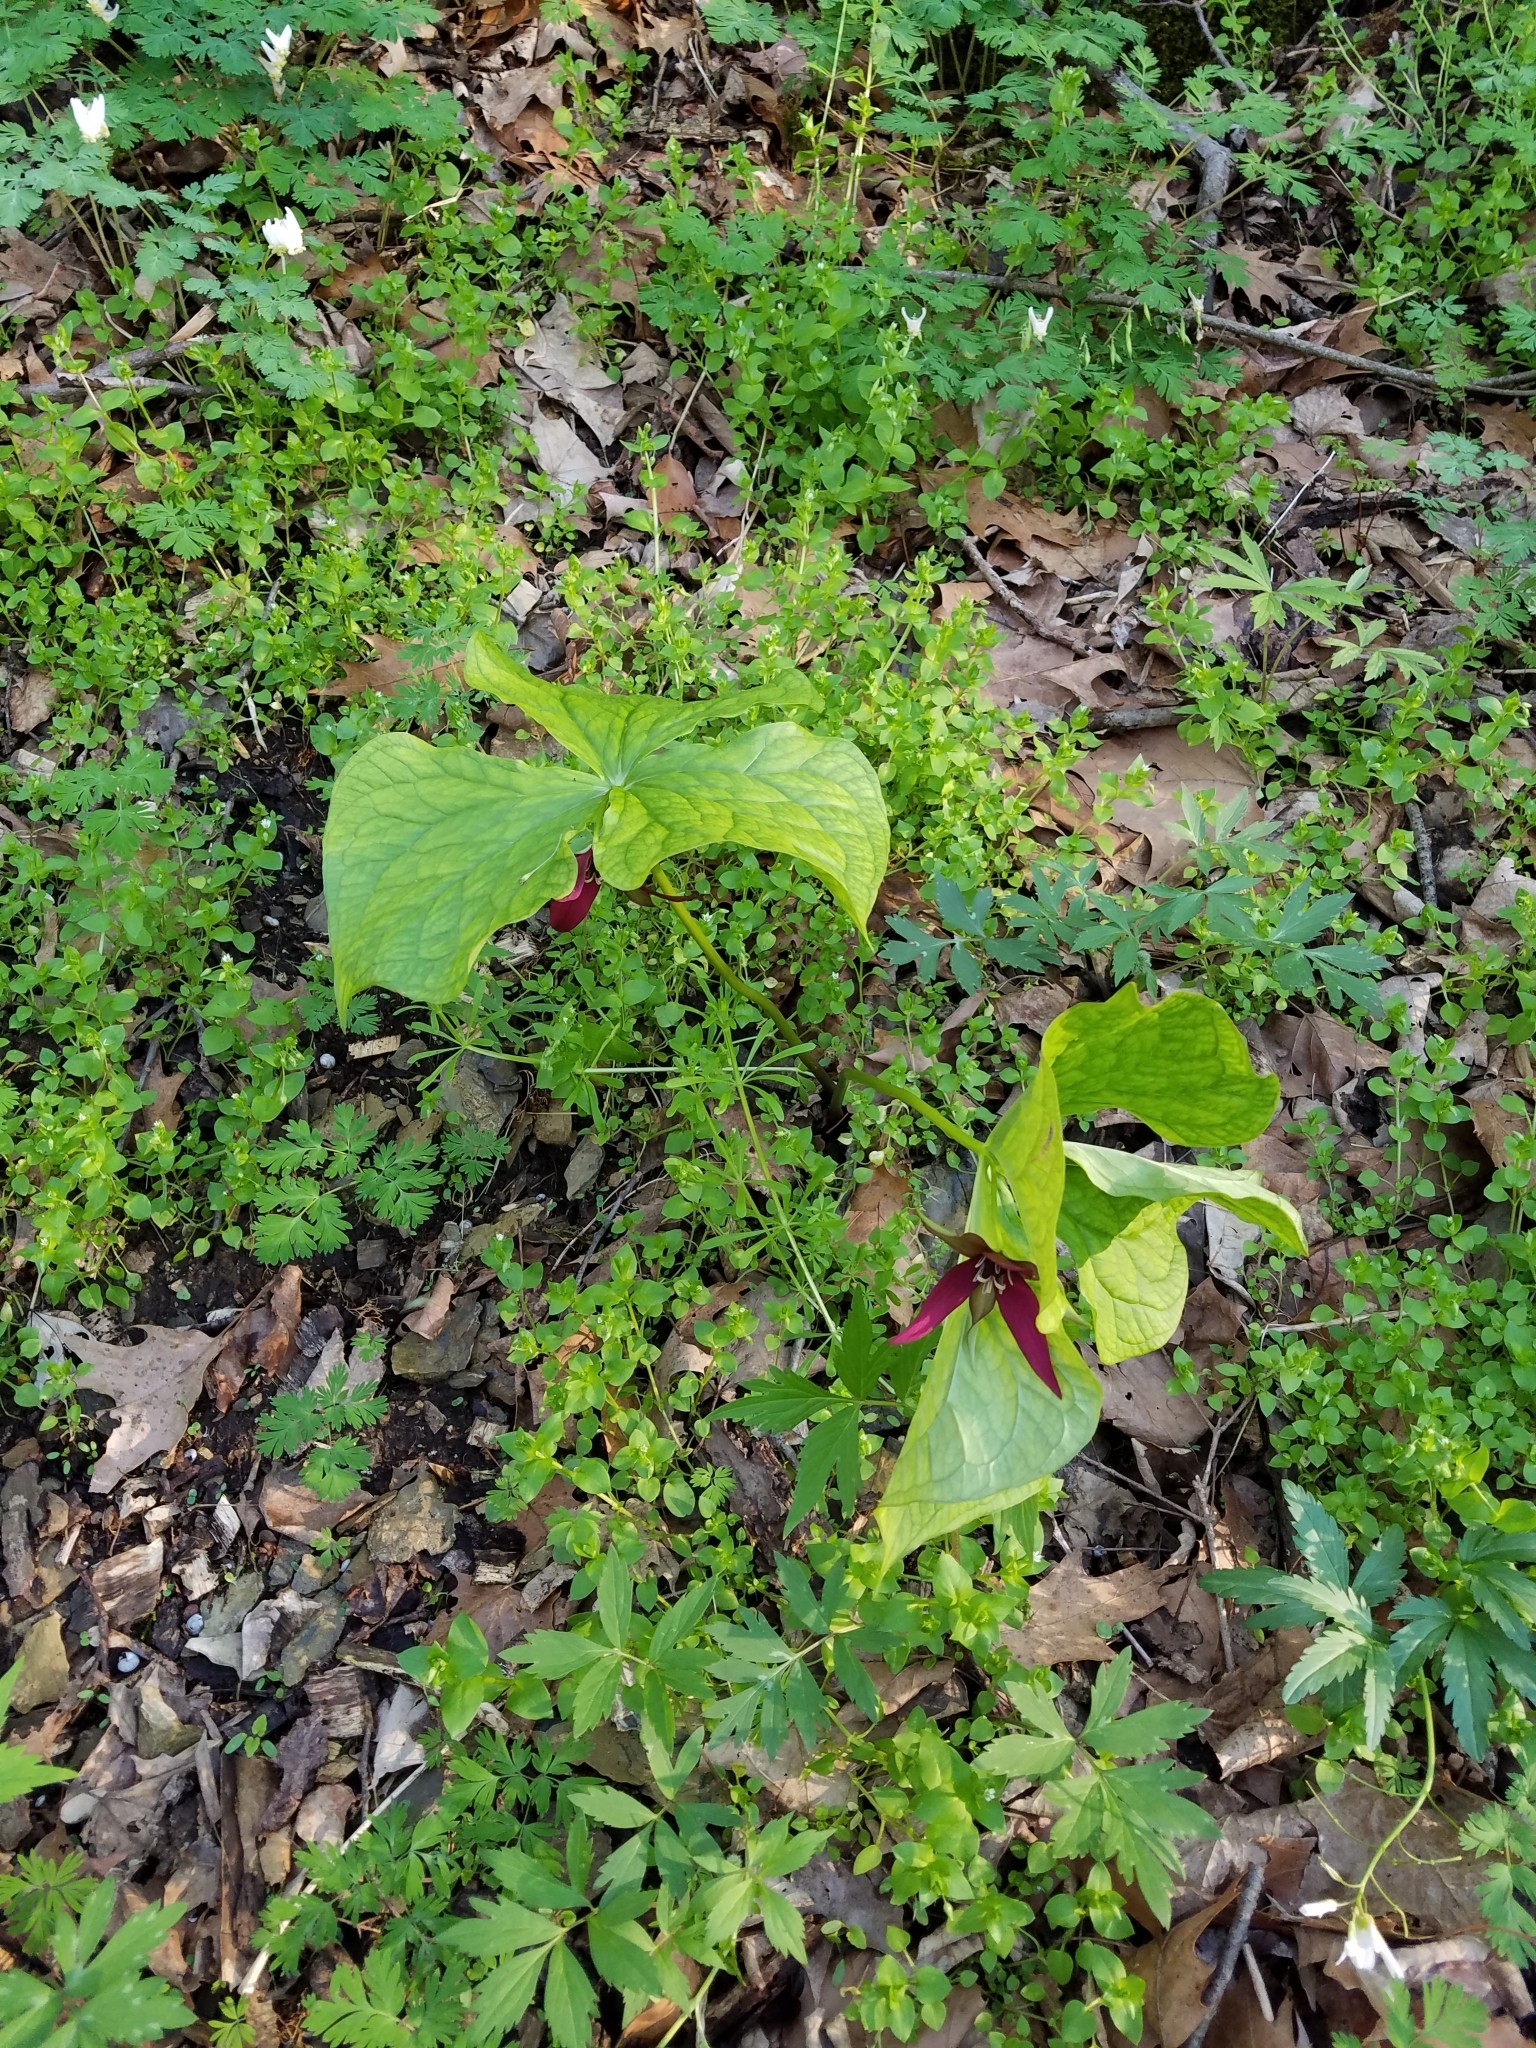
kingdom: Plantae
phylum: Tracheophyta
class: Liliopsida
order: Liliales
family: Melanthiaceae
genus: Trillium
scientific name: Trillium erectum
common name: Purple trillium
